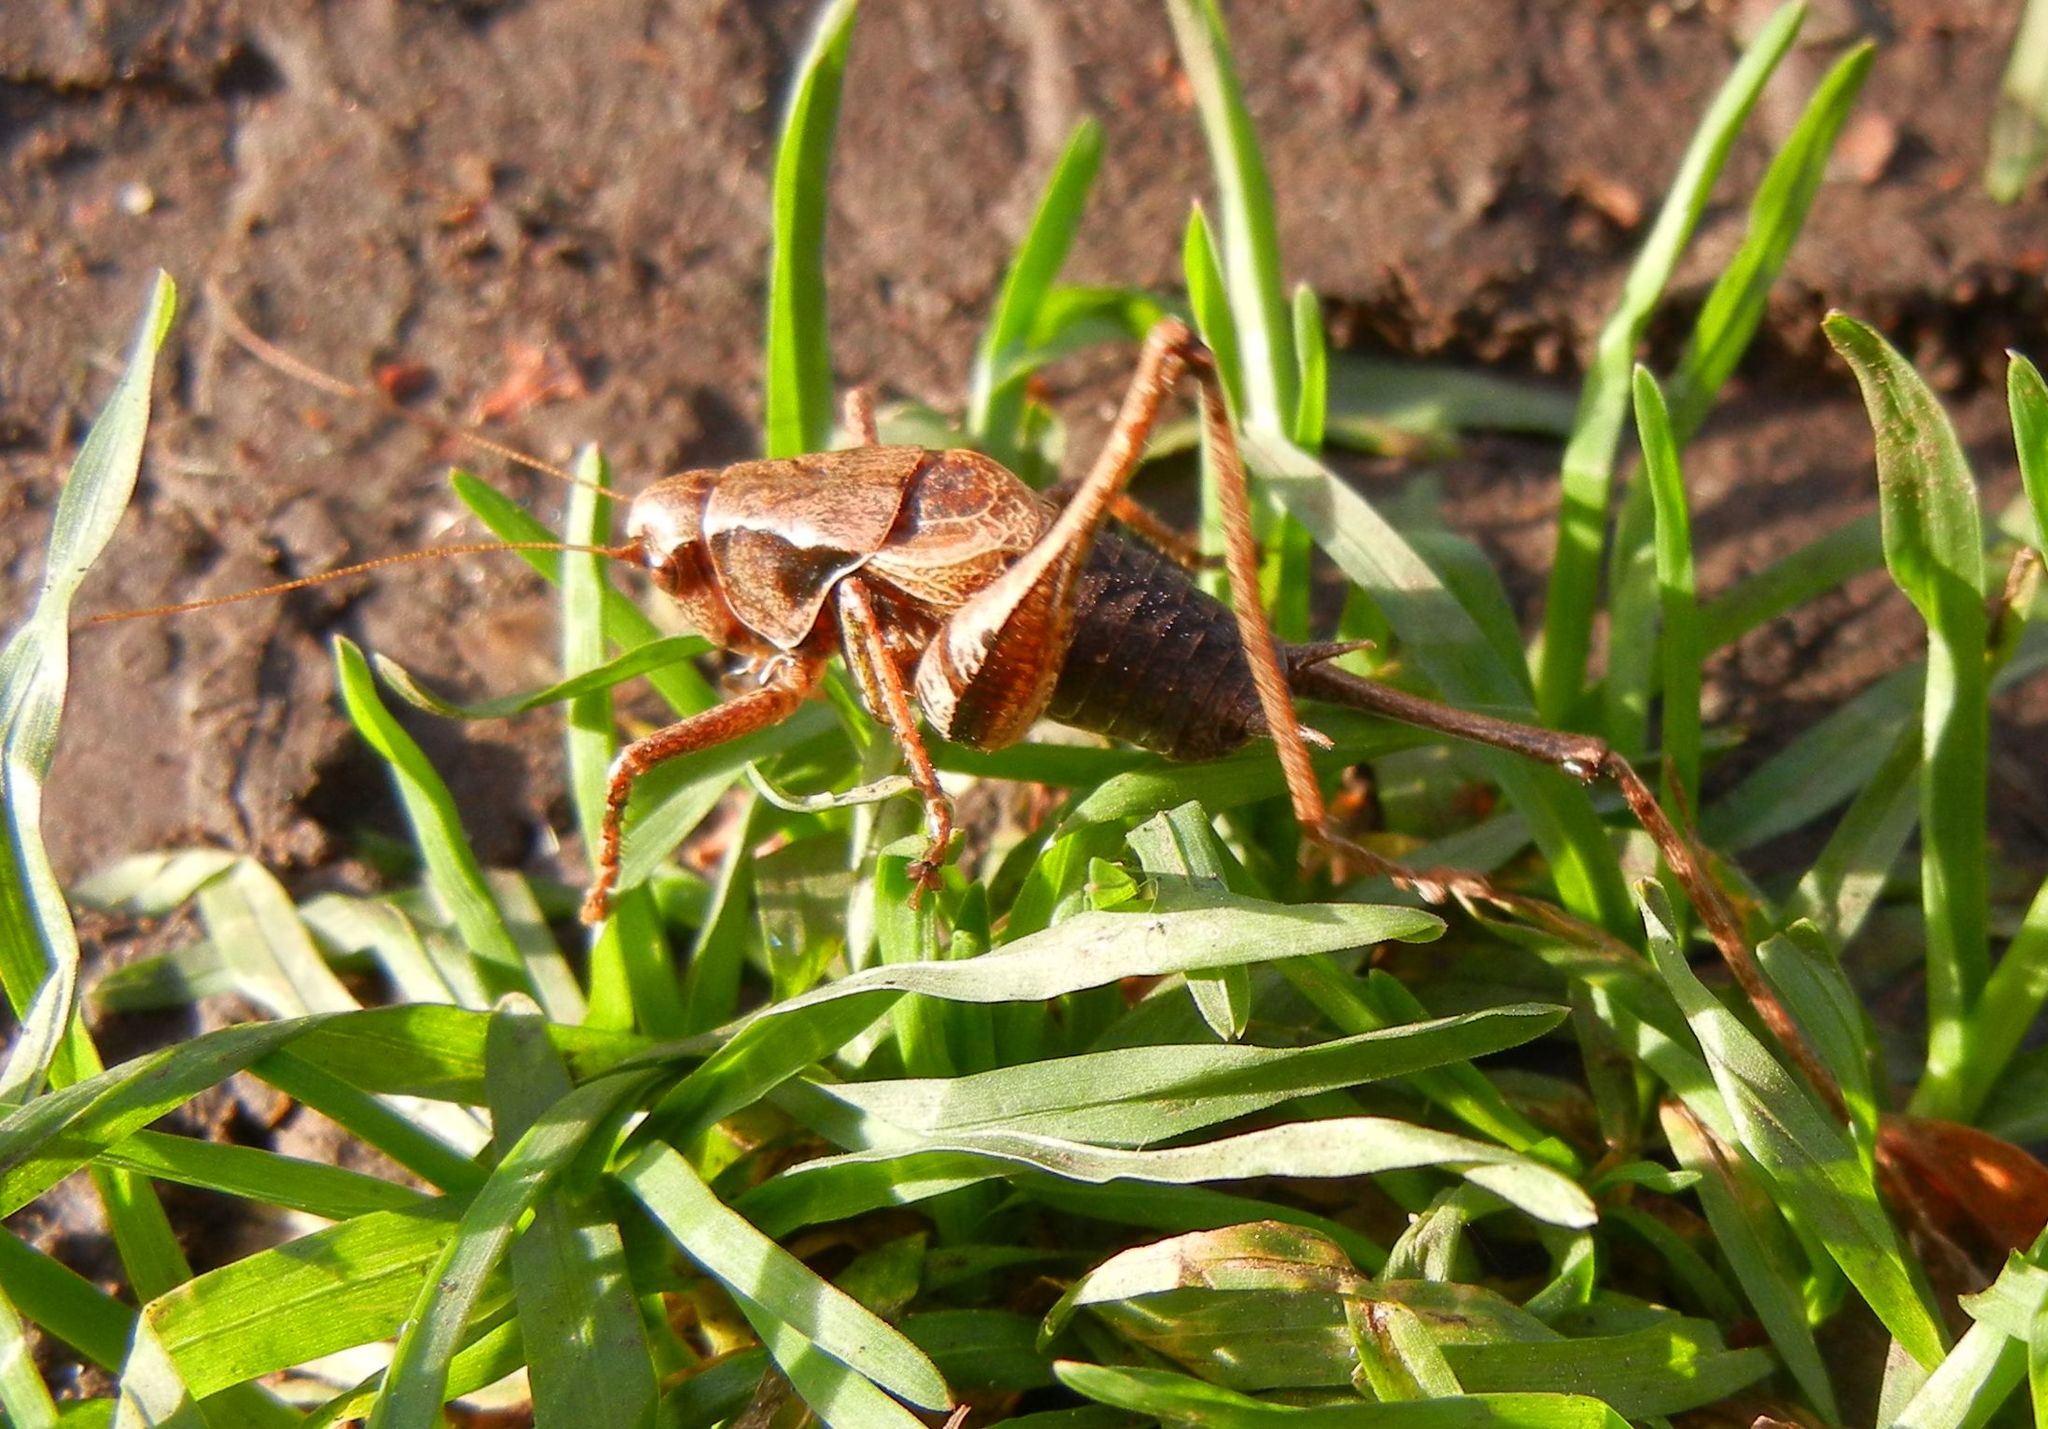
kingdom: Animalia
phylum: Arthropoda
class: Insecta
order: Orthoptera
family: Tettigoniidae
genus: Pholidoptera
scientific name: Pholidoptera griseoaptera
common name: Dark bush-cricket
